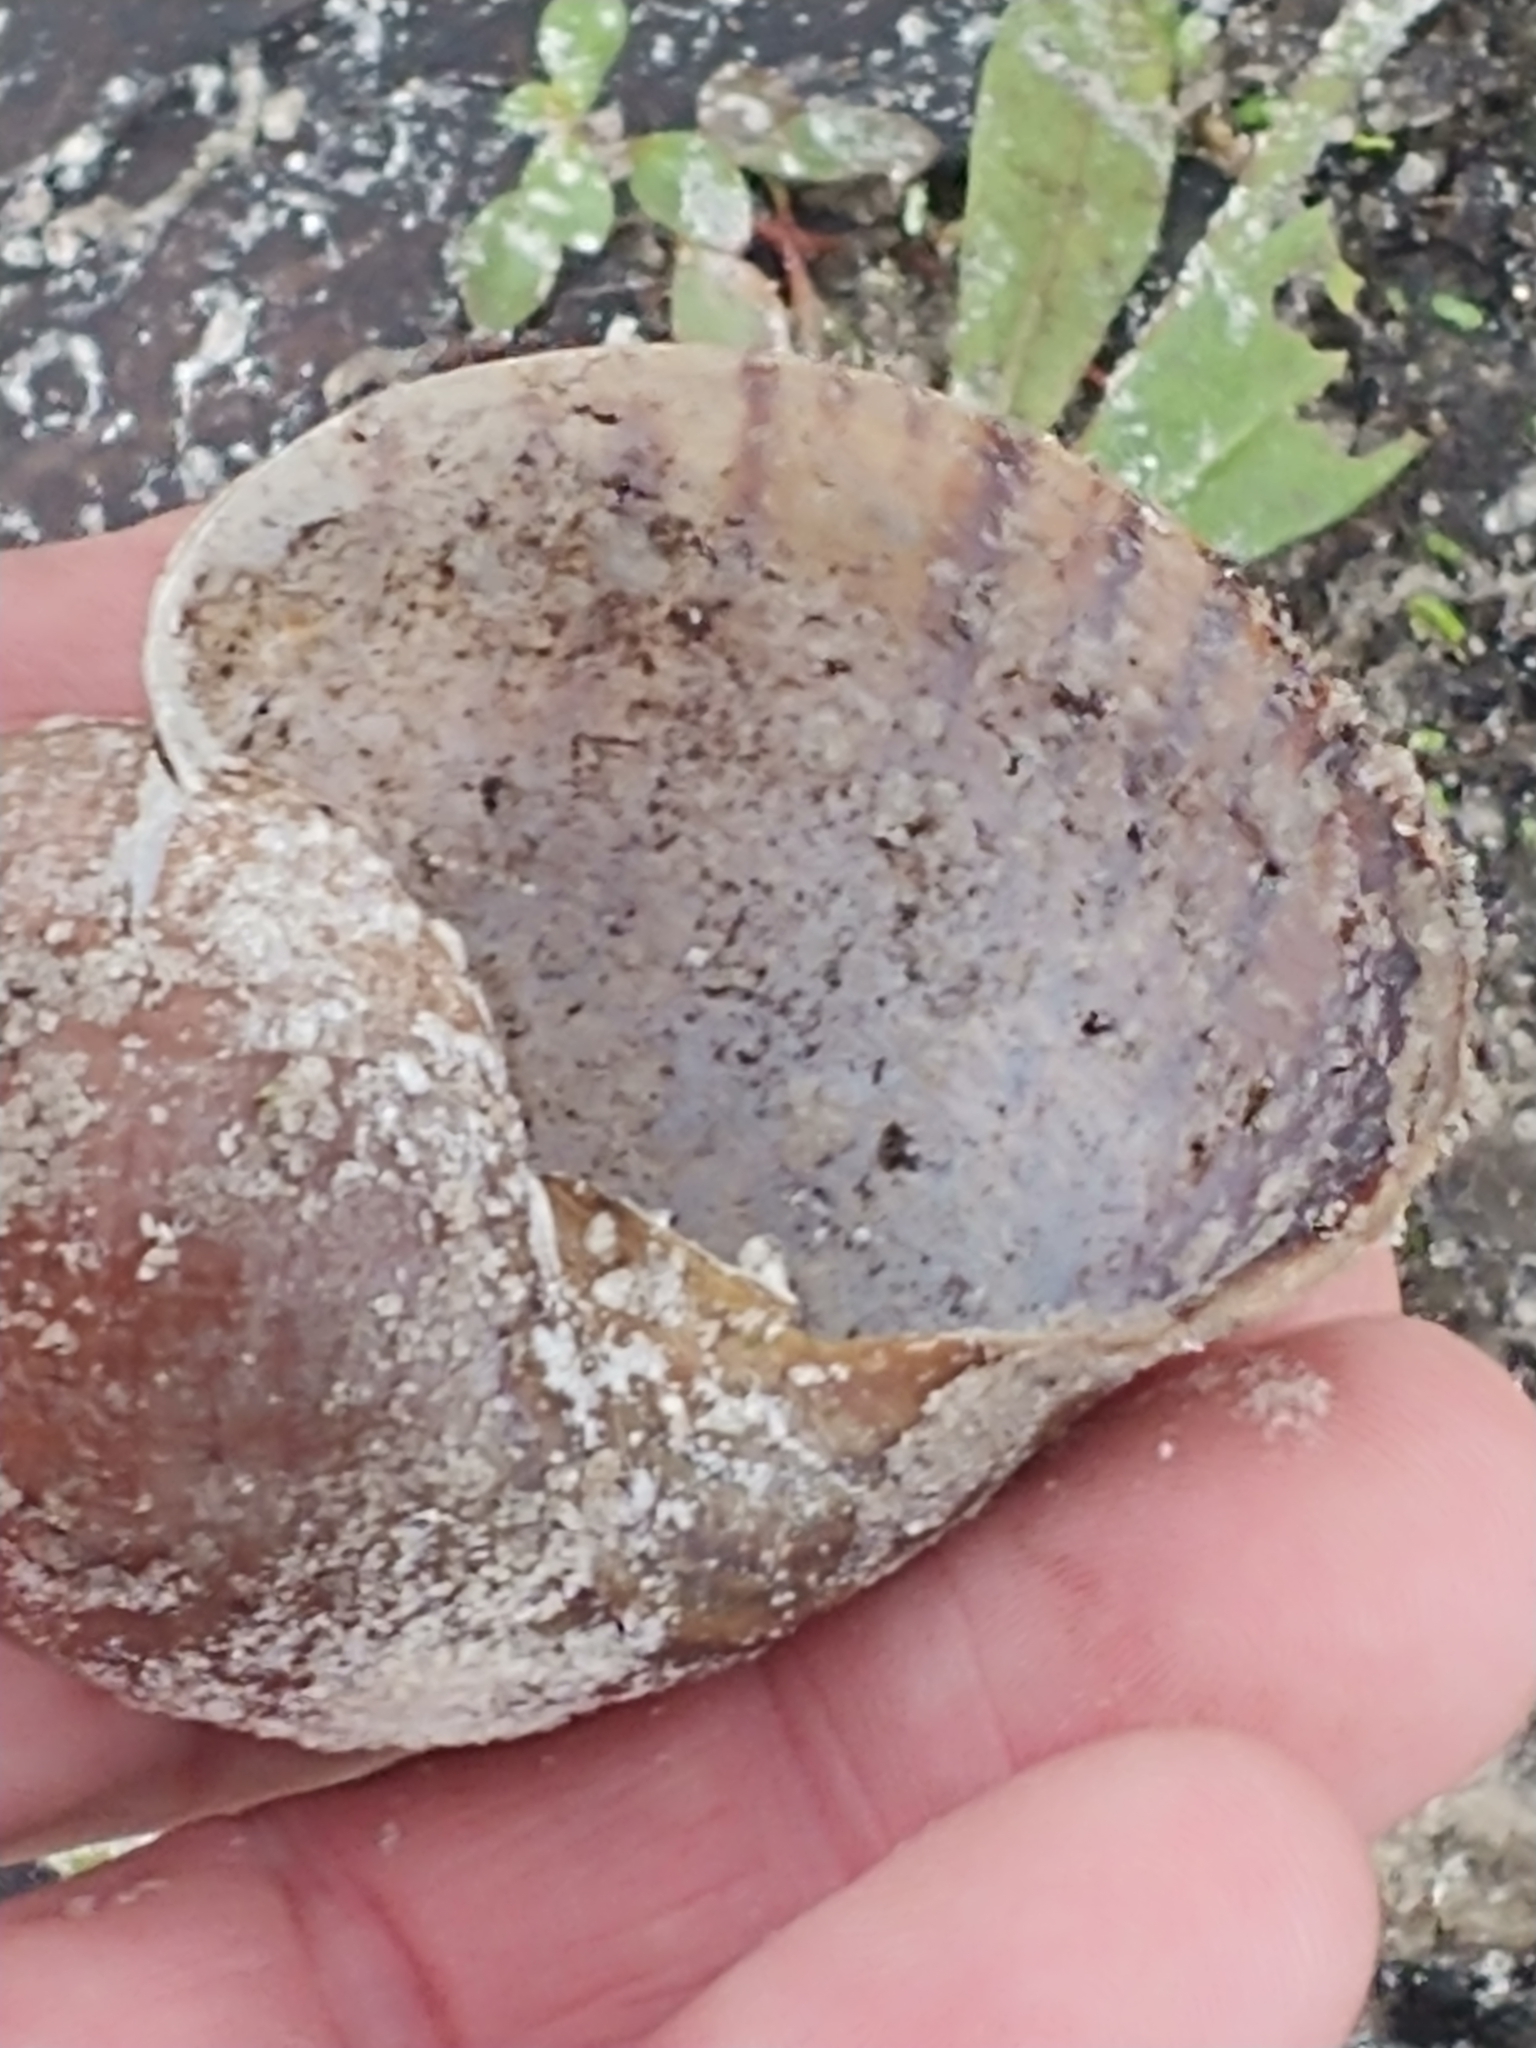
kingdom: Animalia
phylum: Mollusca
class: Gastropoda
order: Architaenioglossa
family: Ampullariidae
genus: Pomacea
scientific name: Pomacea maculata
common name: Giant applesnail
